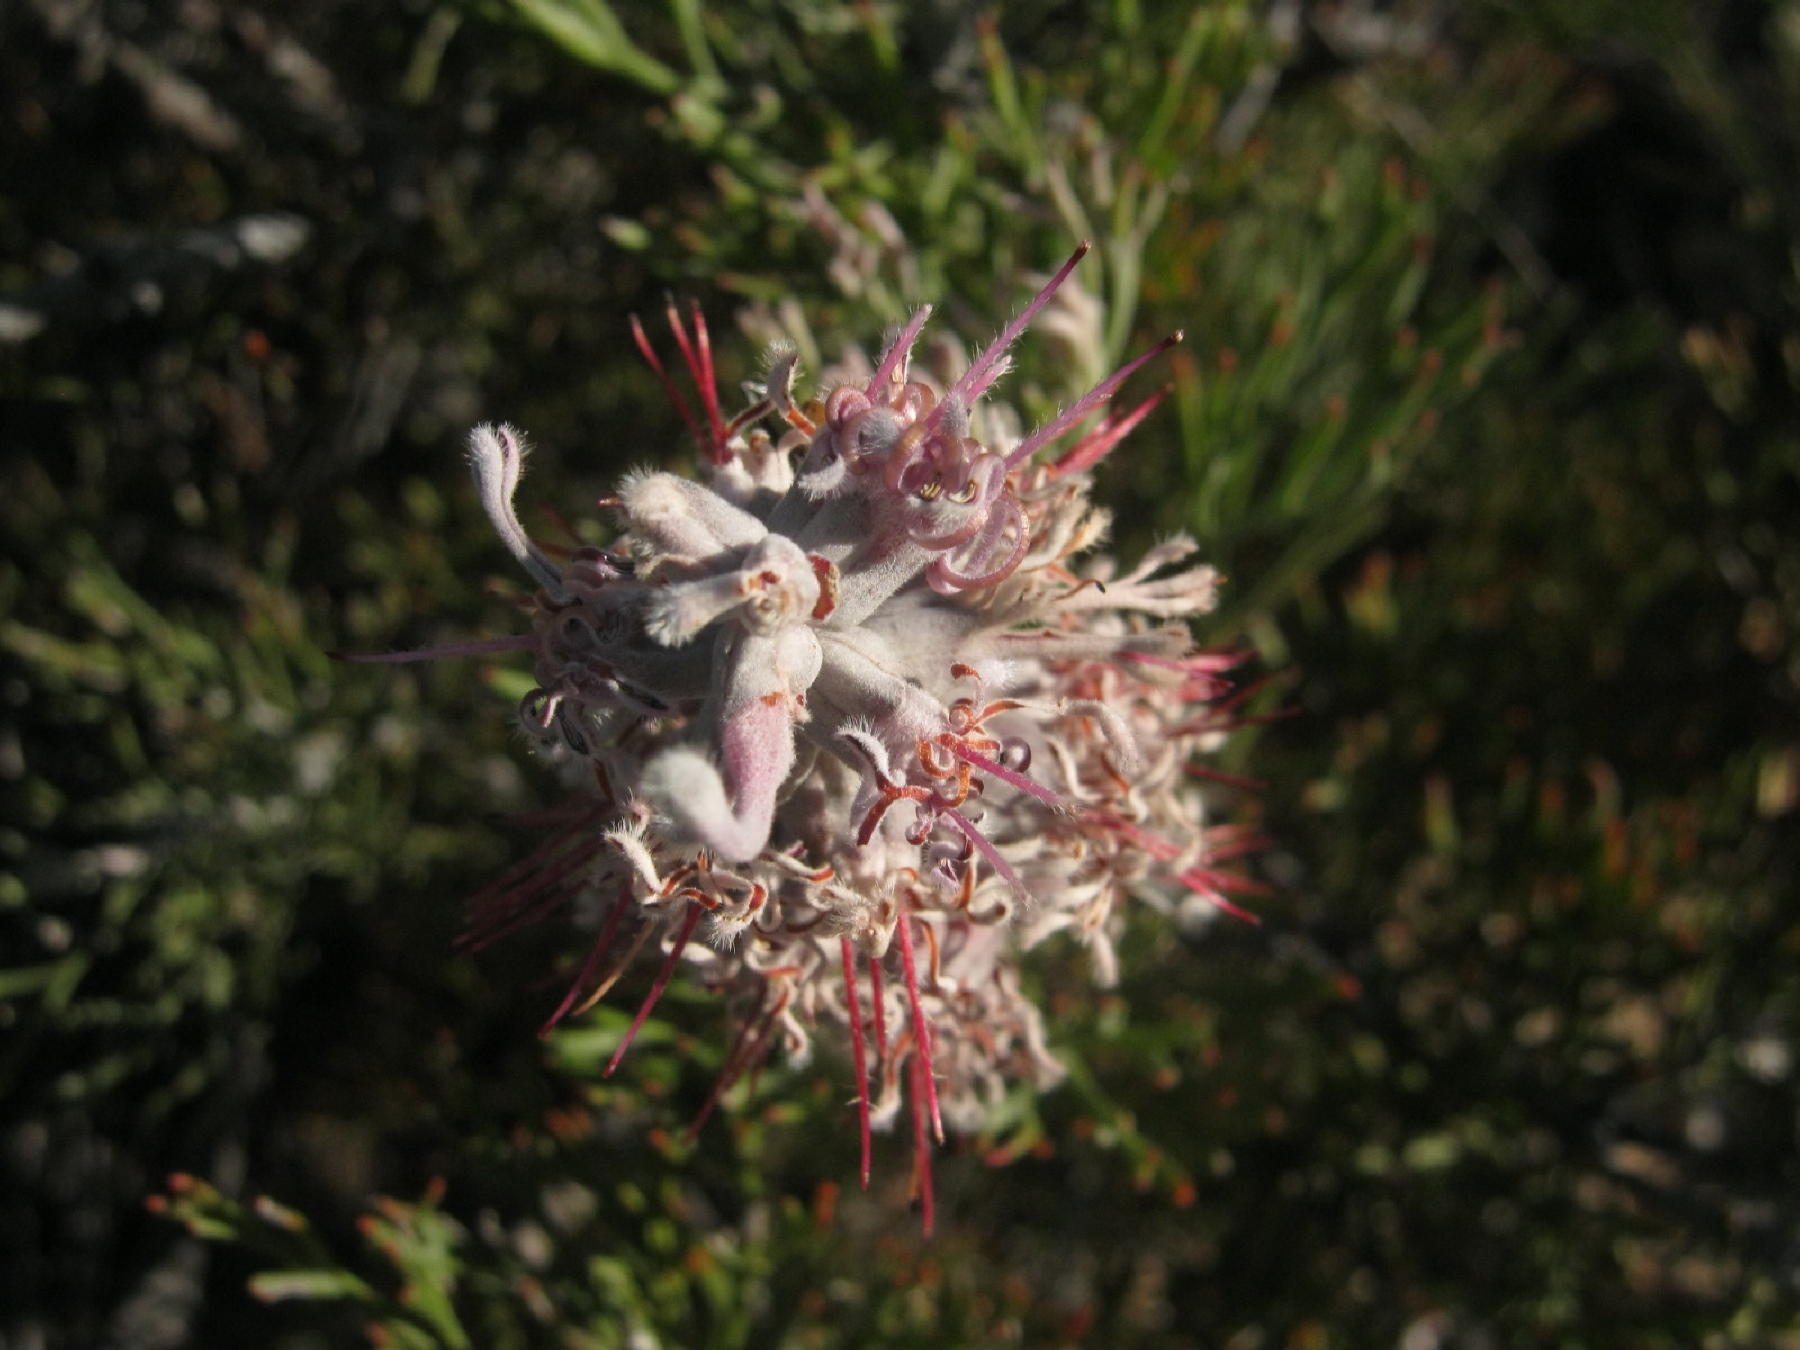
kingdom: Plantae
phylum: Tracheophyta
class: Magnoliopsida
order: Proteales
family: Proteaceae
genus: Paranomus
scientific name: Paranomus dispersus
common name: Long-head sceptre
